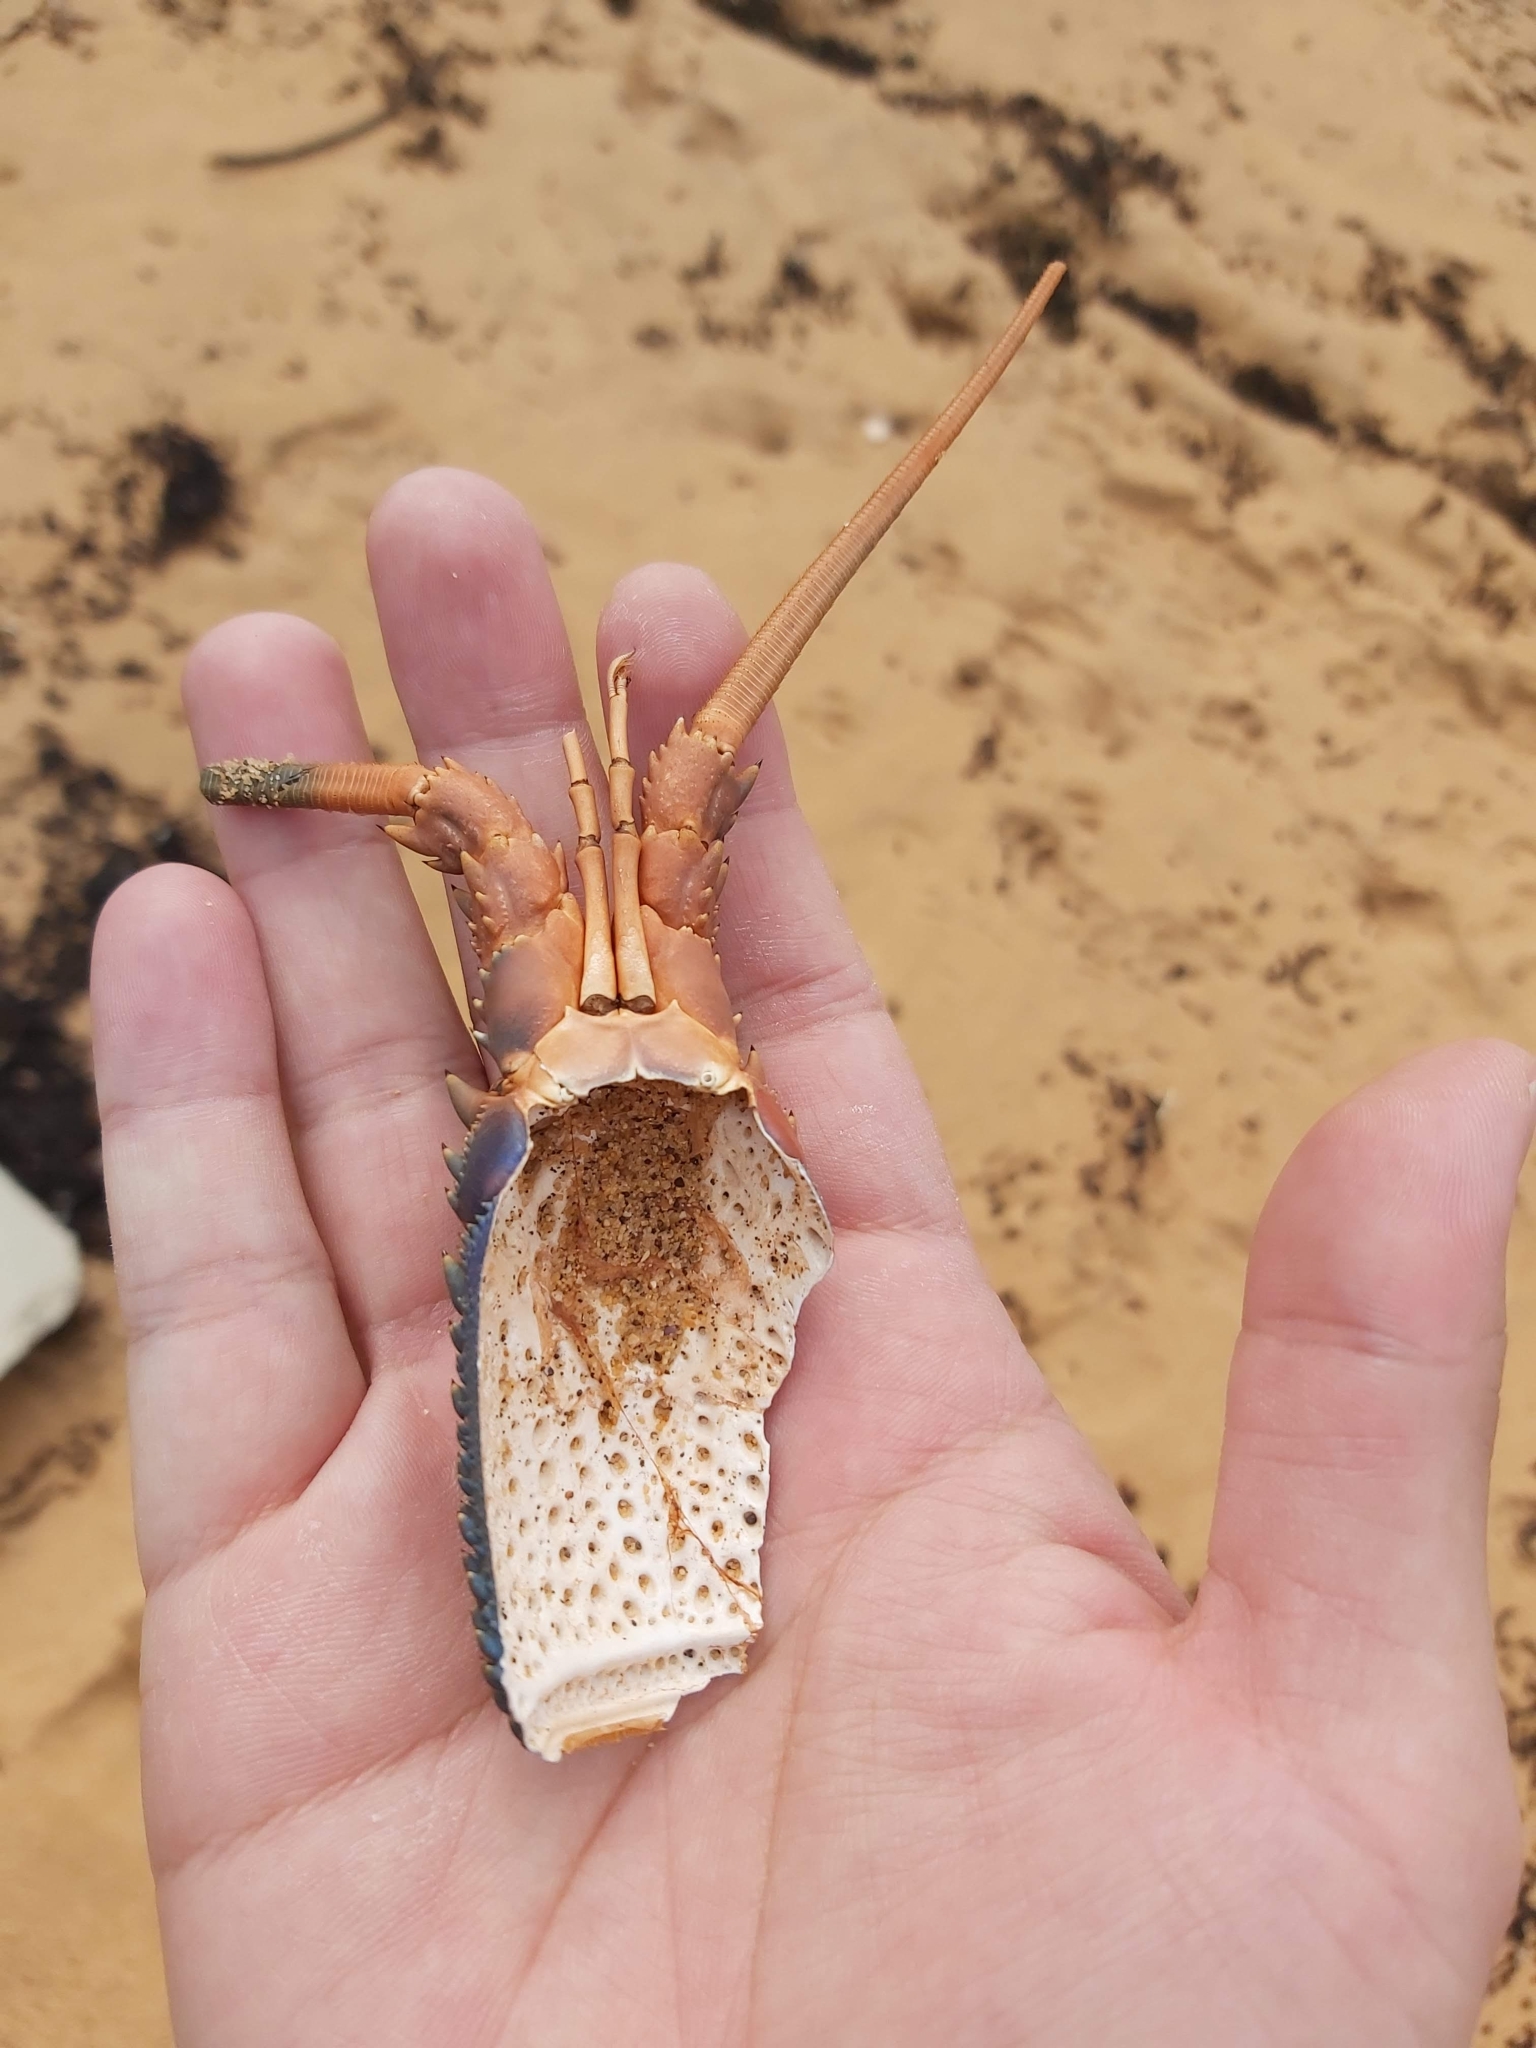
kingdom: Animalia
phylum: Arthropoda
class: Malacostraca
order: Decapoda
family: Palinuridae
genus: Sagmariasus
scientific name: Sagmariasus verreauxi
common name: Green rock lobster
